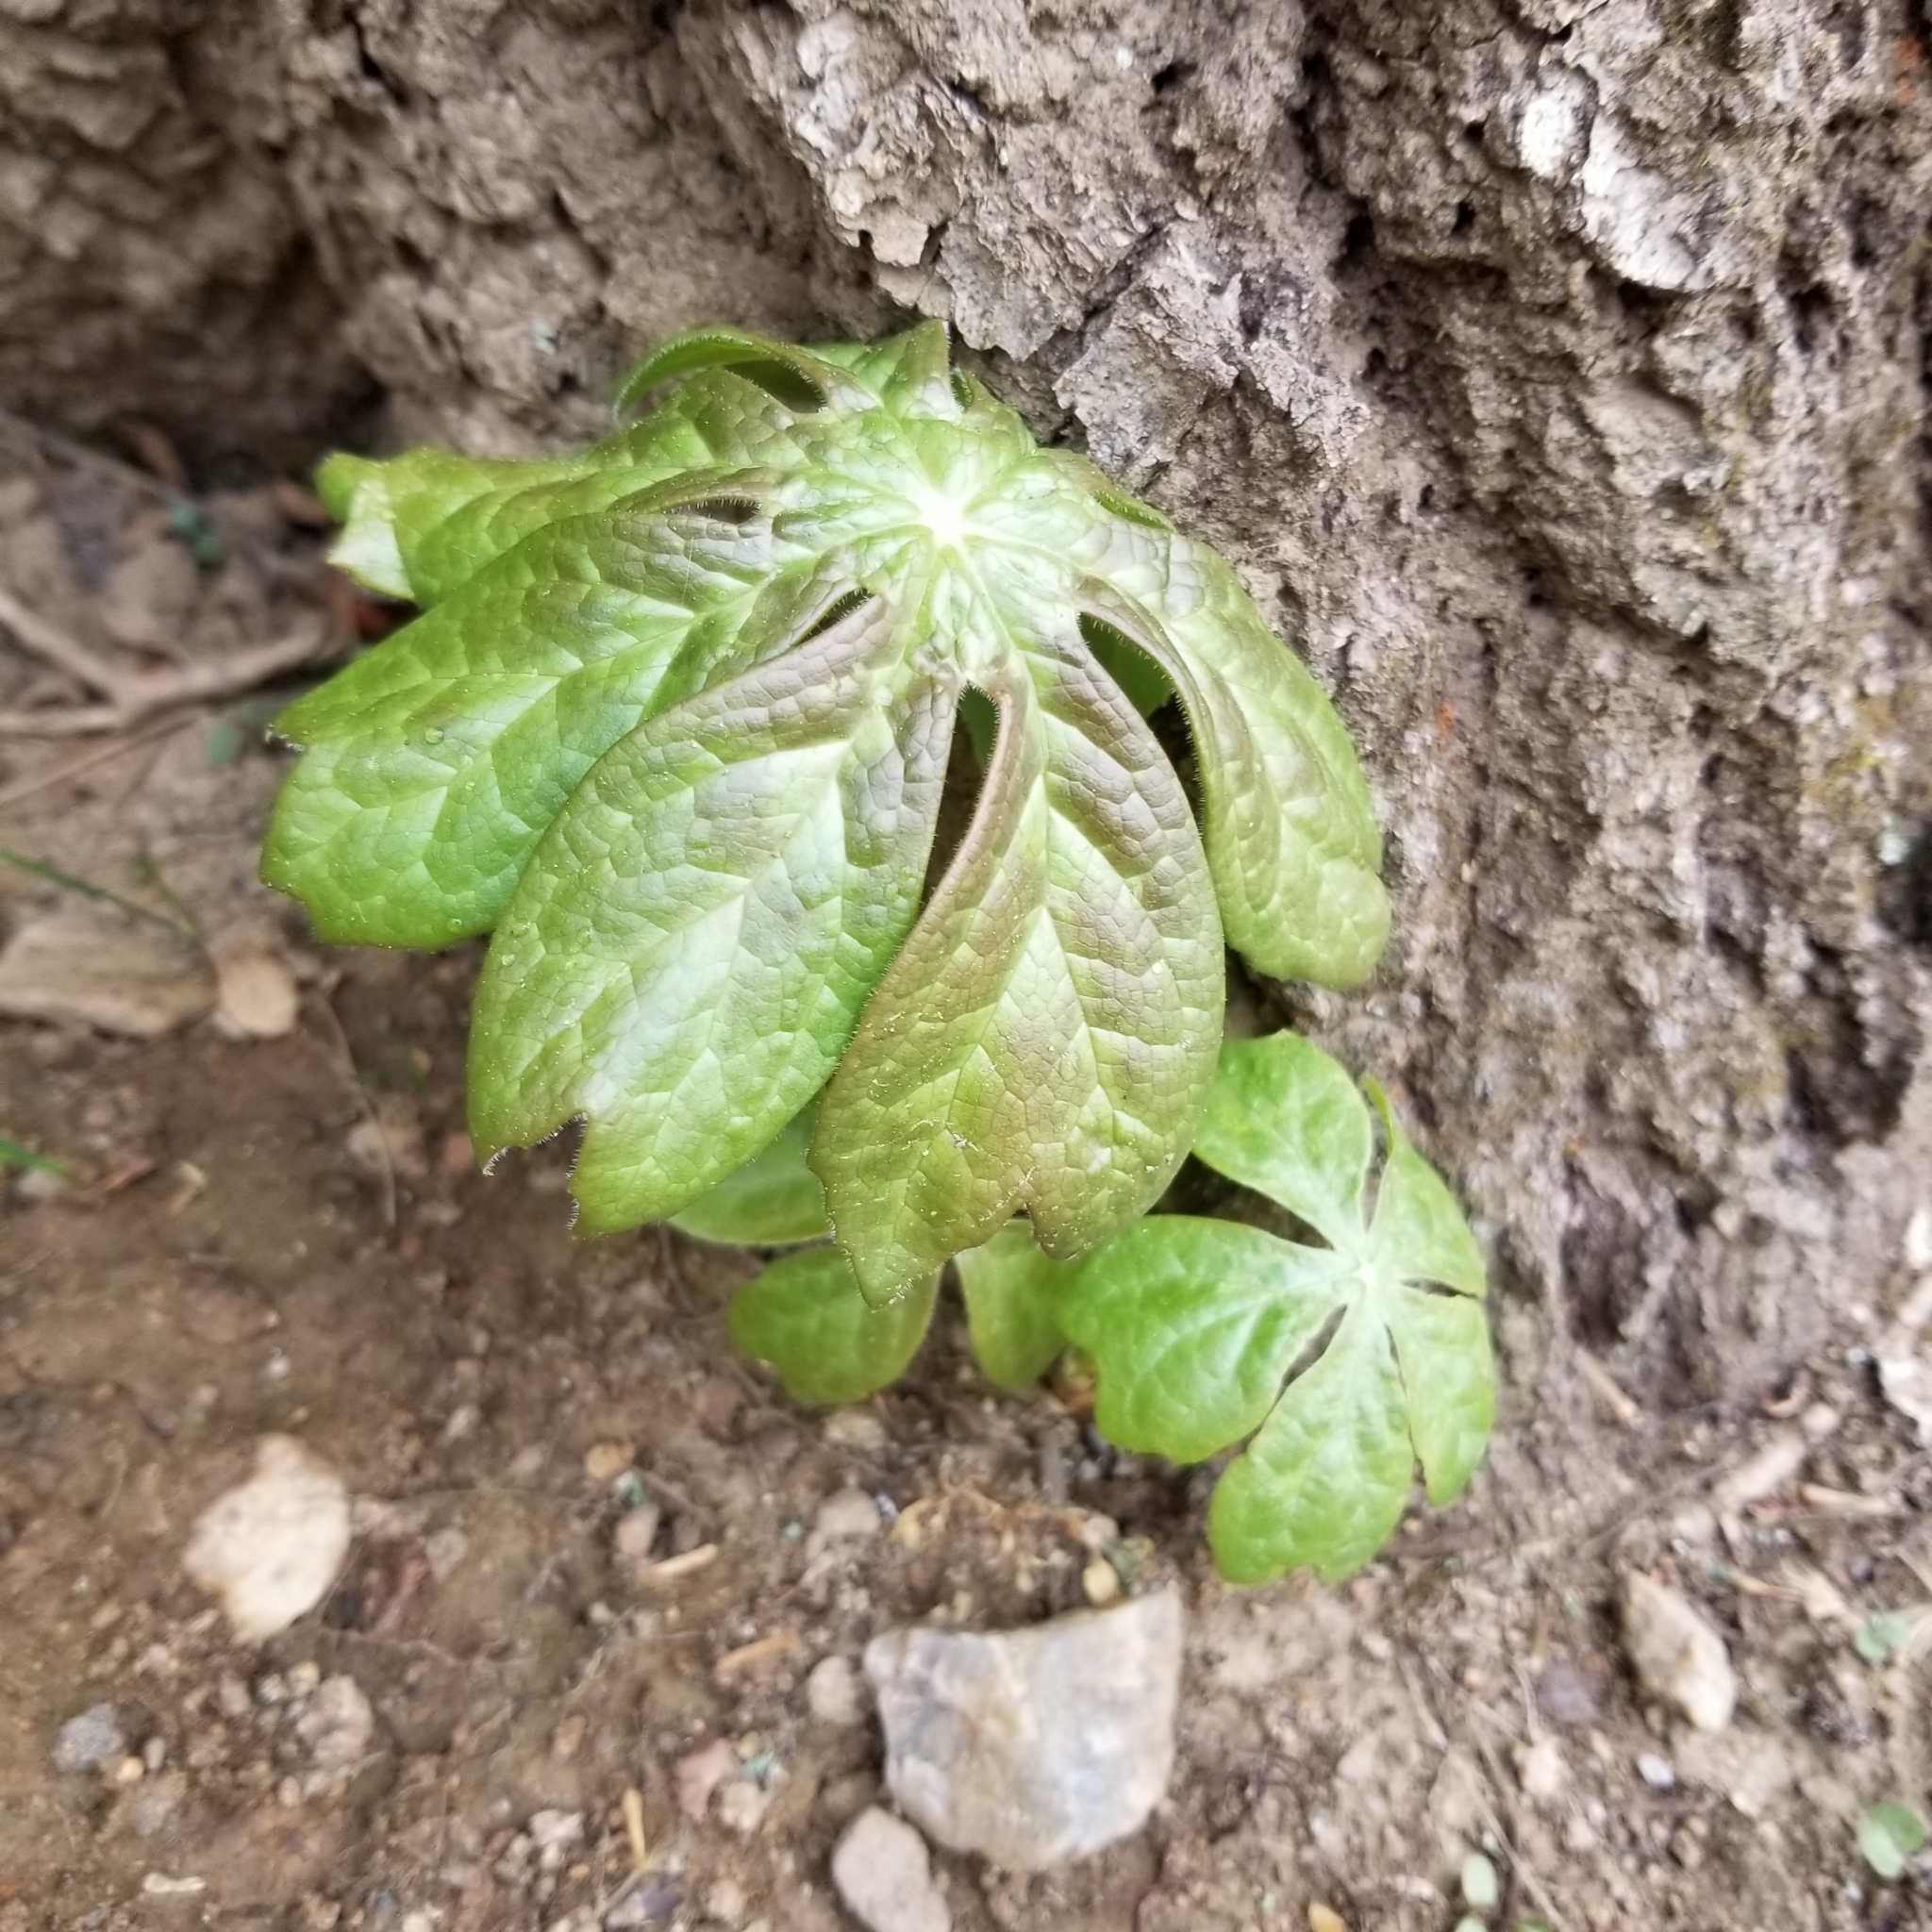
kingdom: Plantae
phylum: Tracheophyta
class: Magnoliopsida
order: Ranunculales
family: Berberidaceae
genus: Podophyllum
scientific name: Podophyllum peltatum
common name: Wild mandrake
